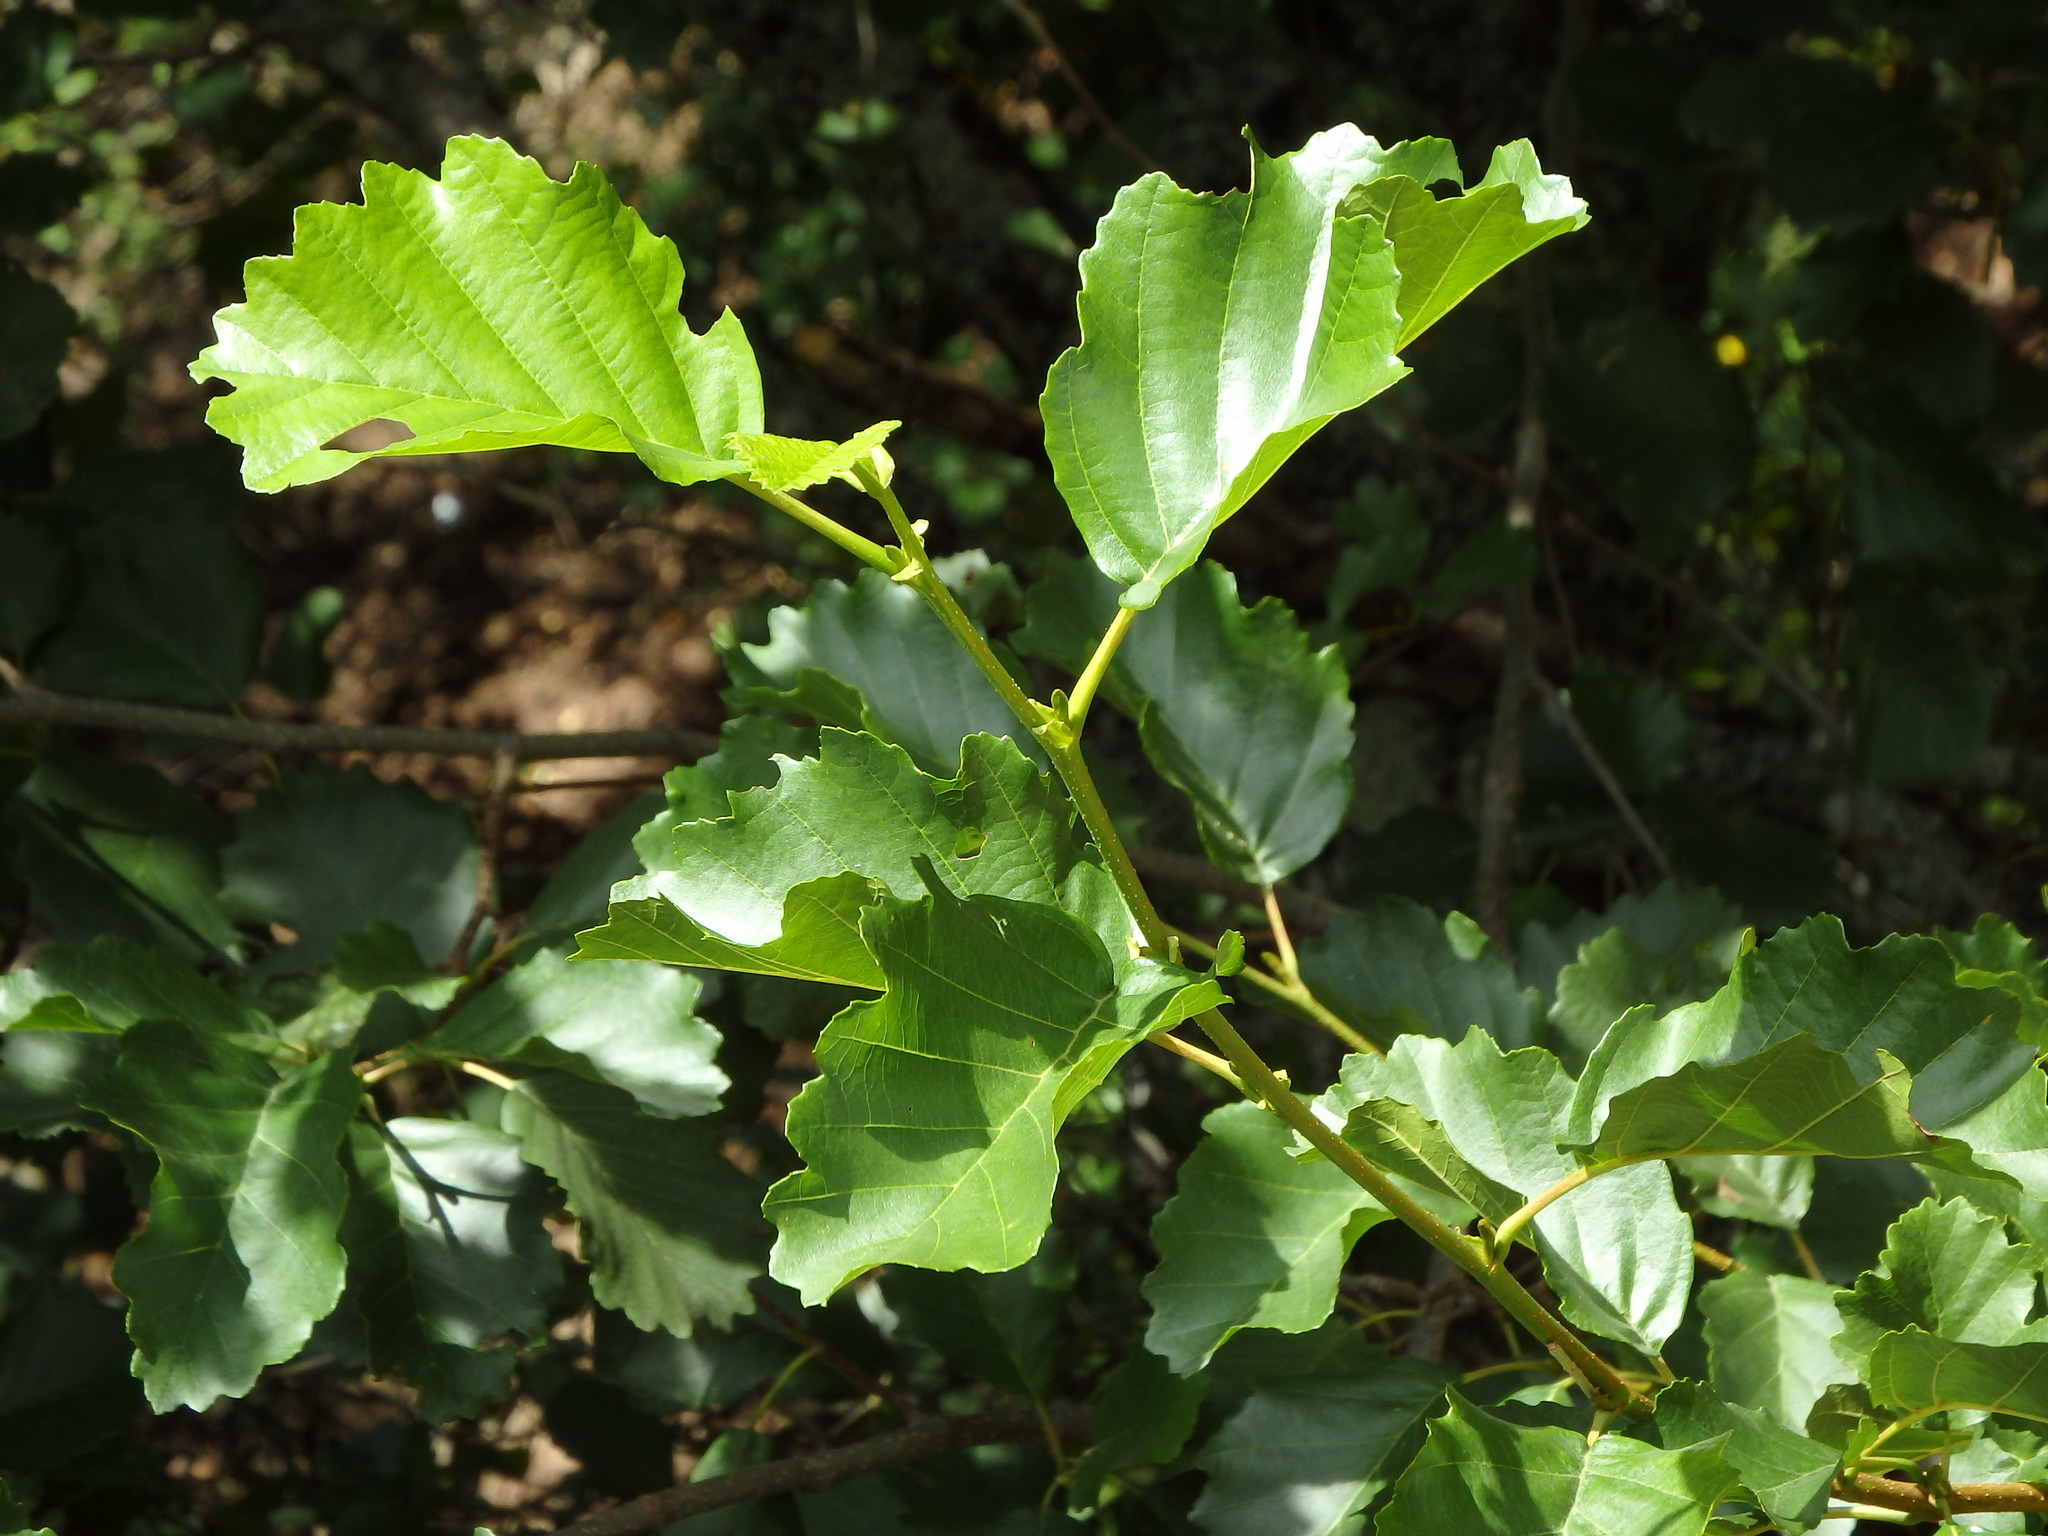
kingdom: Plantae
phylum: Tracheophyta
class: Magnoliopsida
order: Fagales
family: Betulaceae
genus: Alnus
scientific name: Alnus lusitanica
